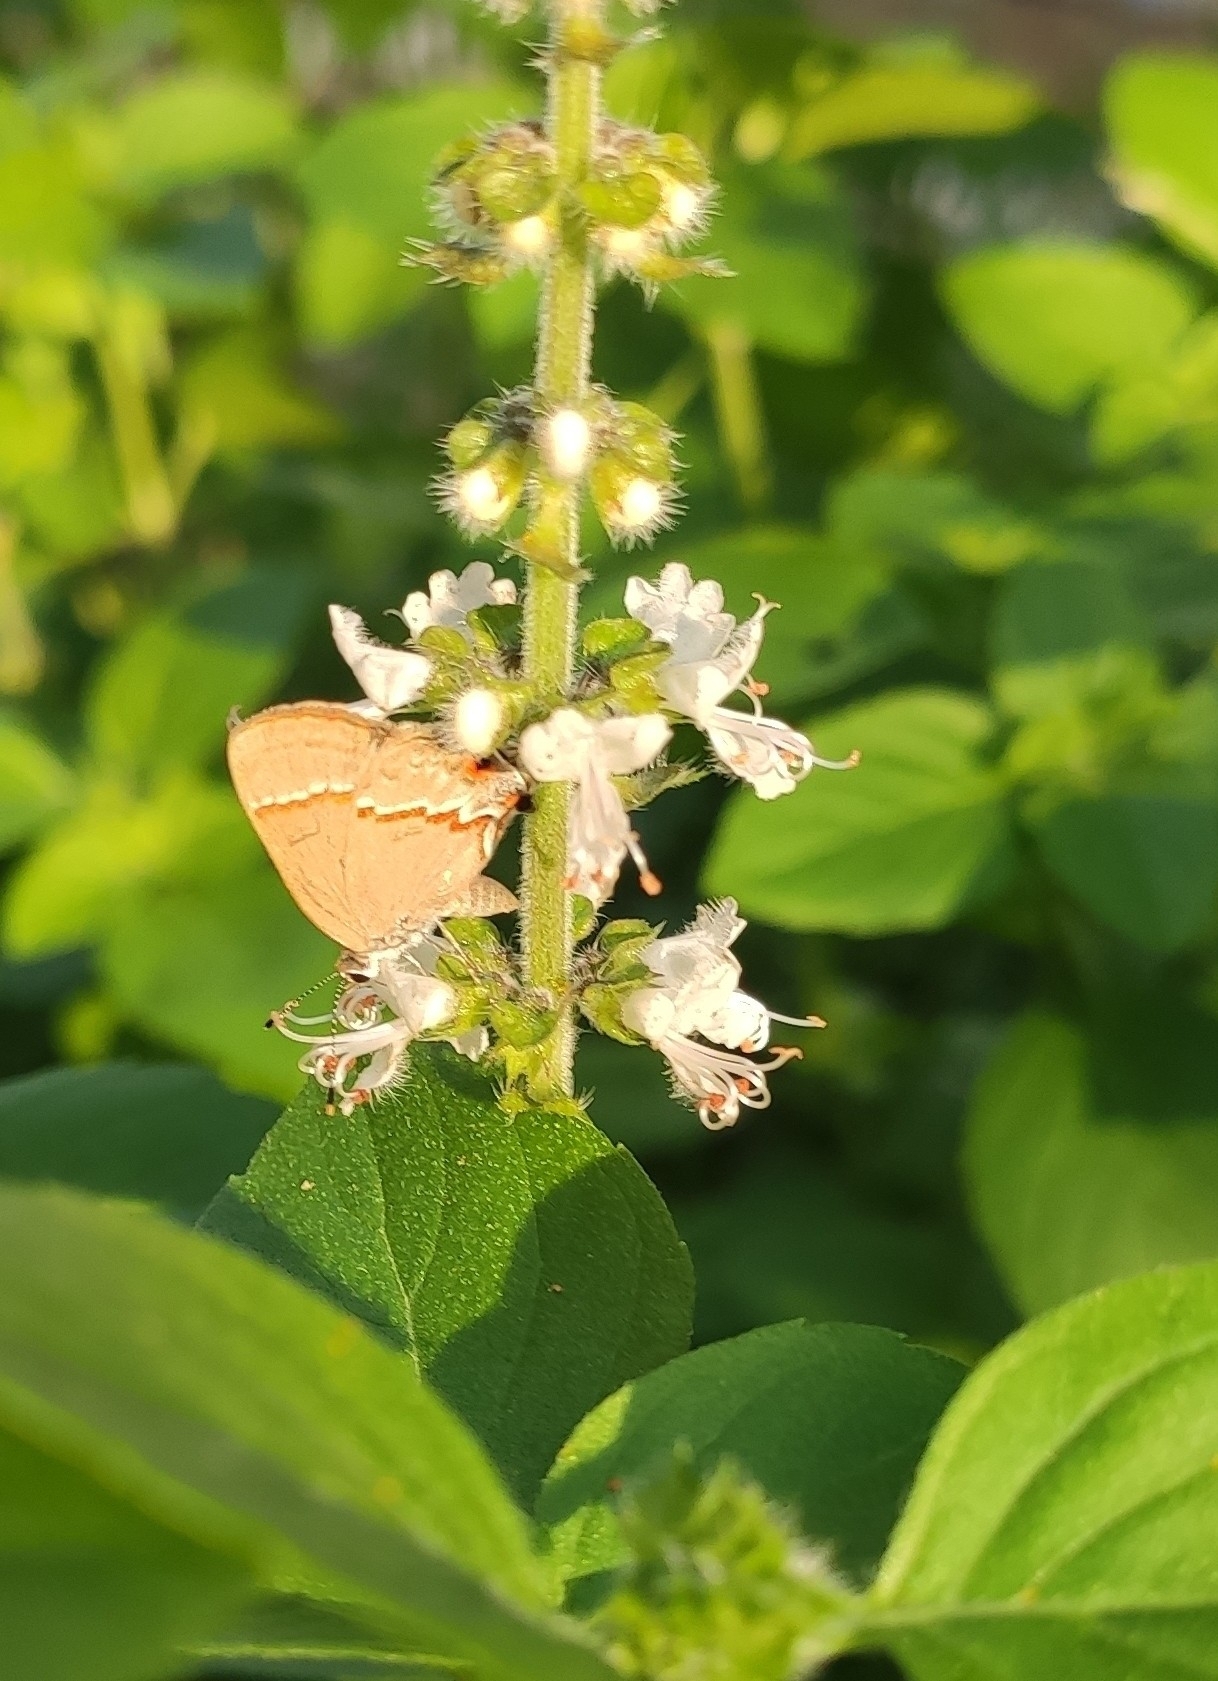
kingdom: Animalia
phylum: Arthropoda
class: Insecta
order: Lepidoptera
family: Lycaenidae
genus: Electrostrymon
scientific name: Electrostrymon endymion
